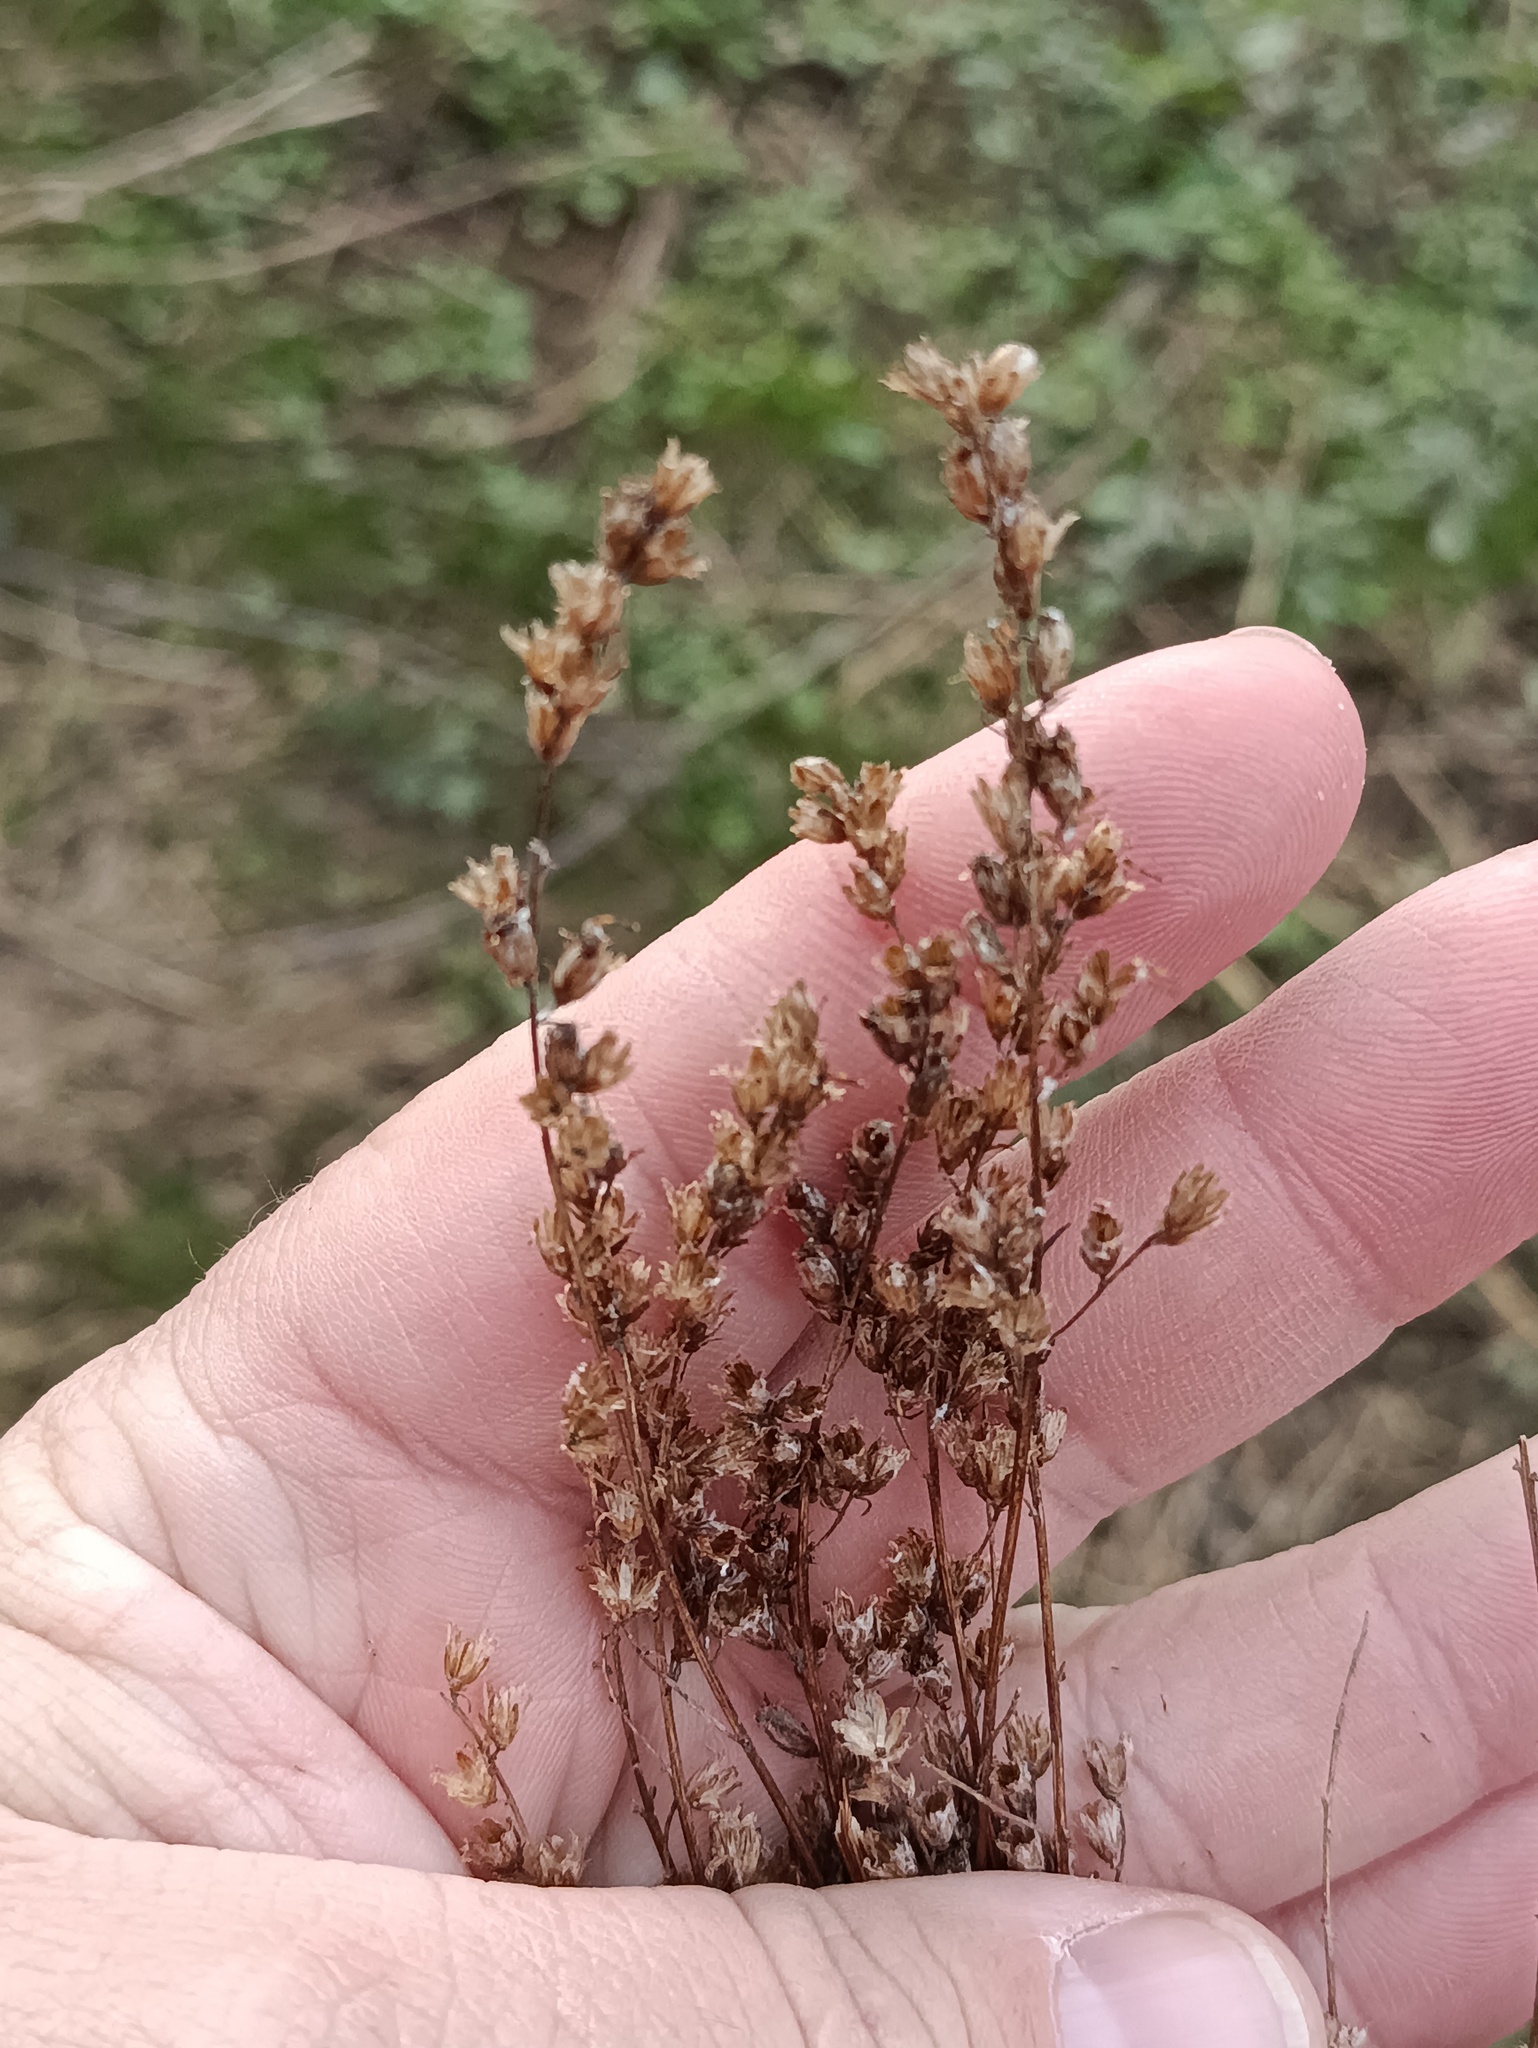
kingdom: Plantae
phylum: Tracheophyta
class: Magnoliopsida
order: Asterales
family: Asteraceae
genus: Artemisia
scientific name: Artemisia vulgaris
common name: Mugwort
